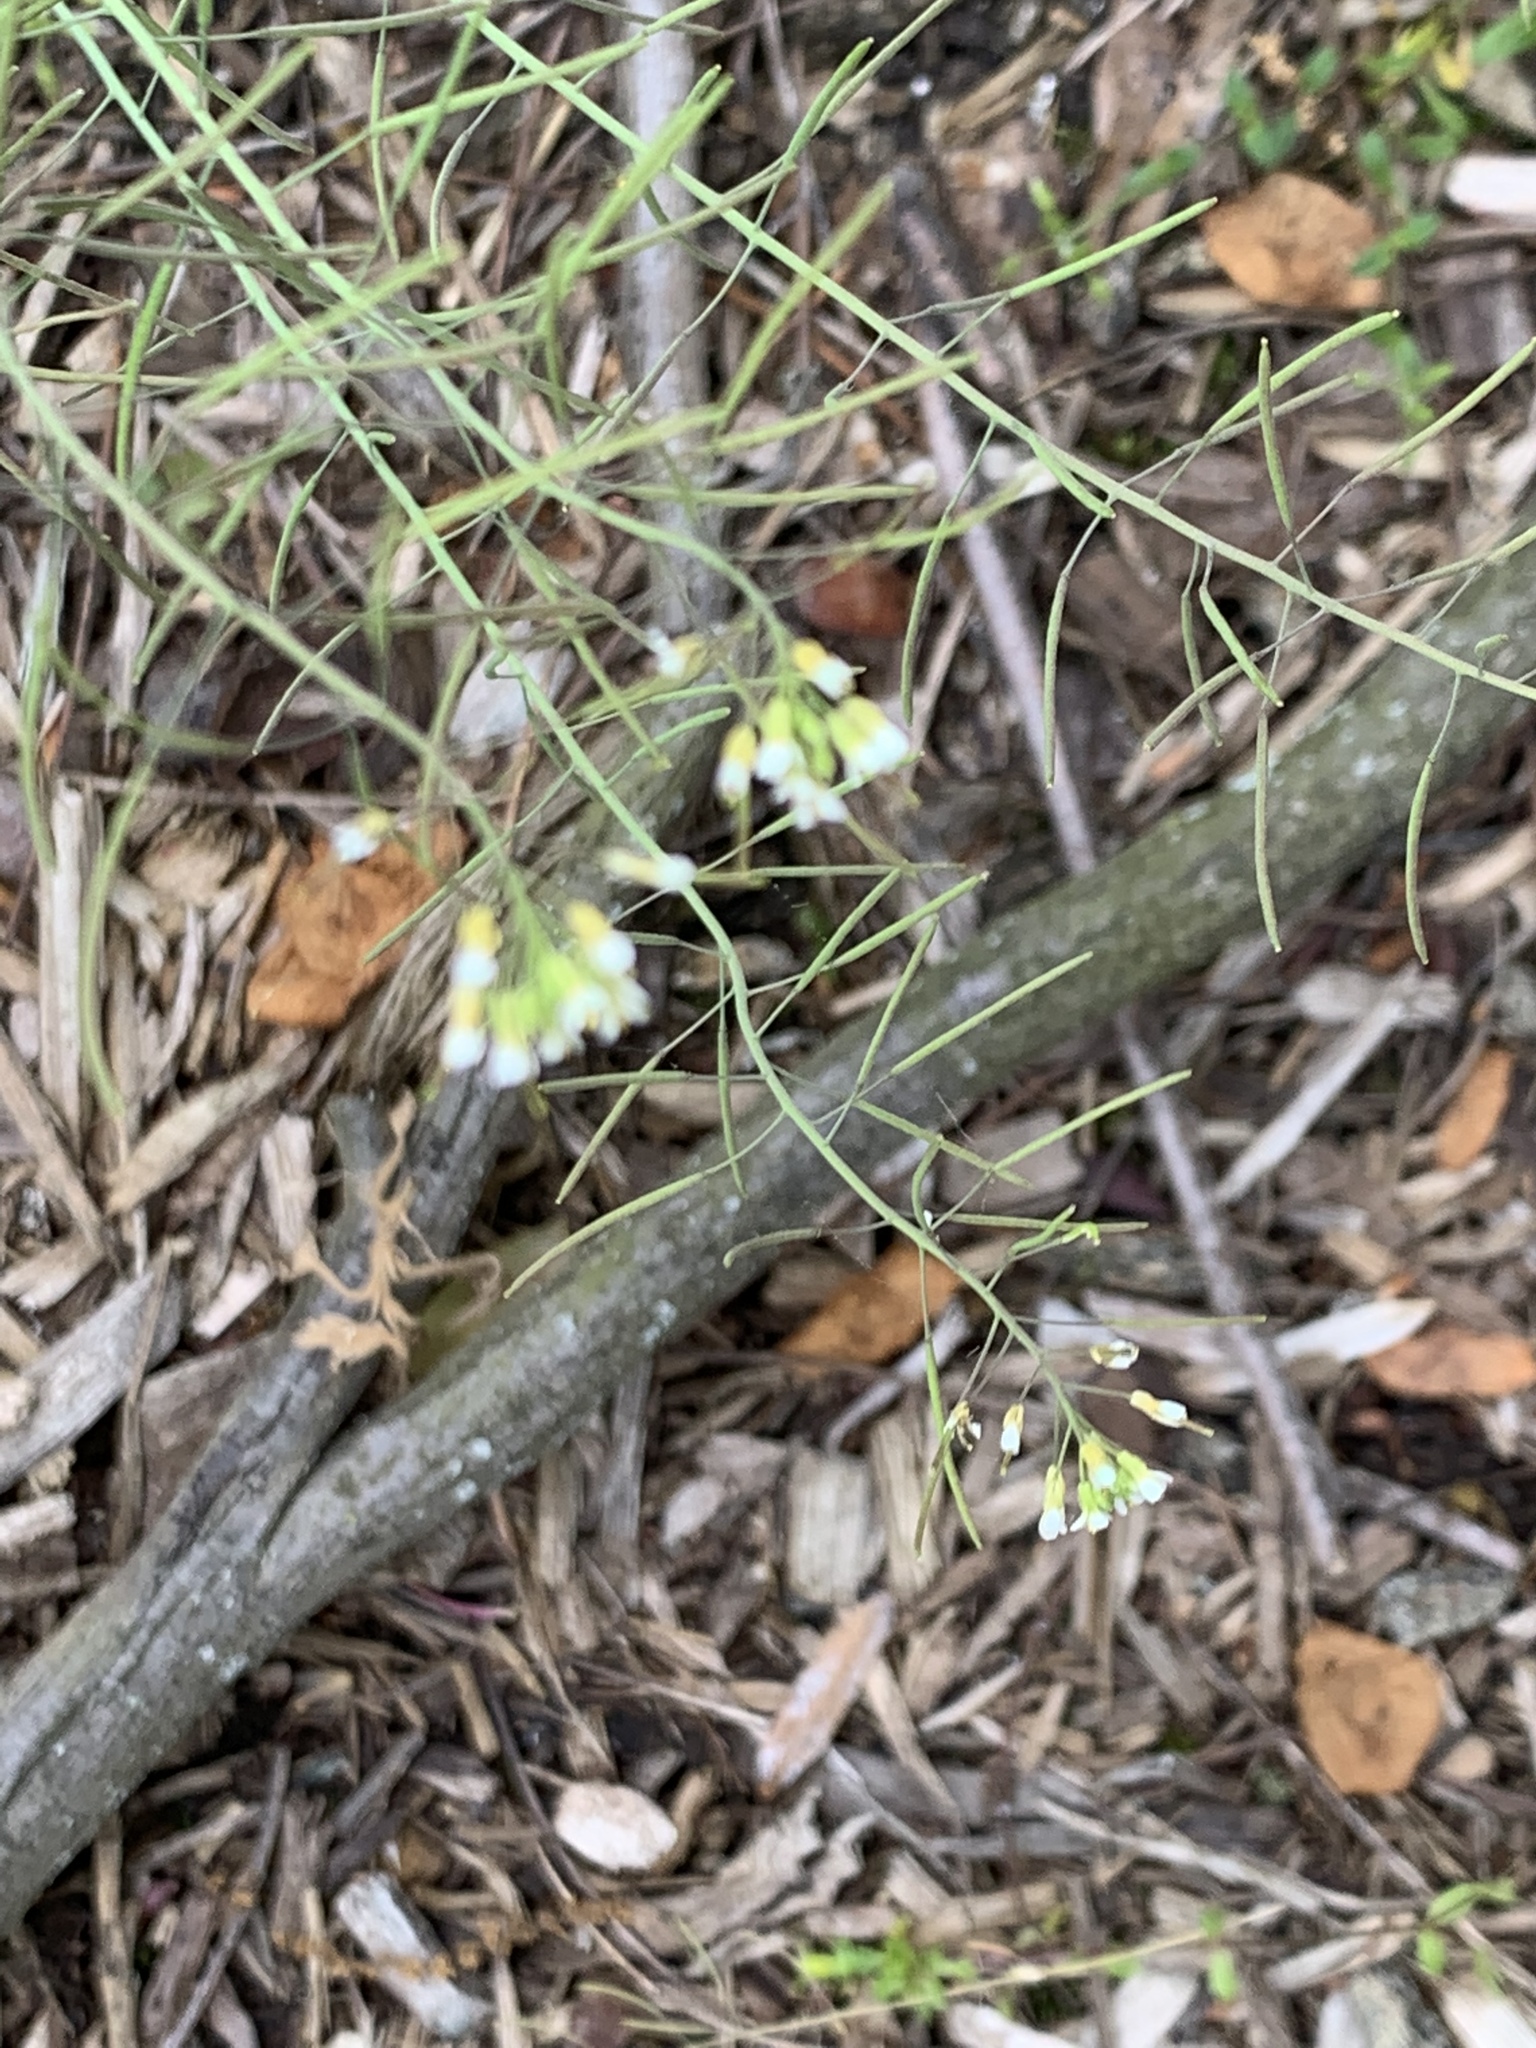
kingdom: Plantae
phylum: Tracheophyta
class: Magnoliopsida
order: Brassicales
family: Brassicaceae
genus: Arabidopsis
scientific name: Arabidopsis thaliana
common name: Thale cress
